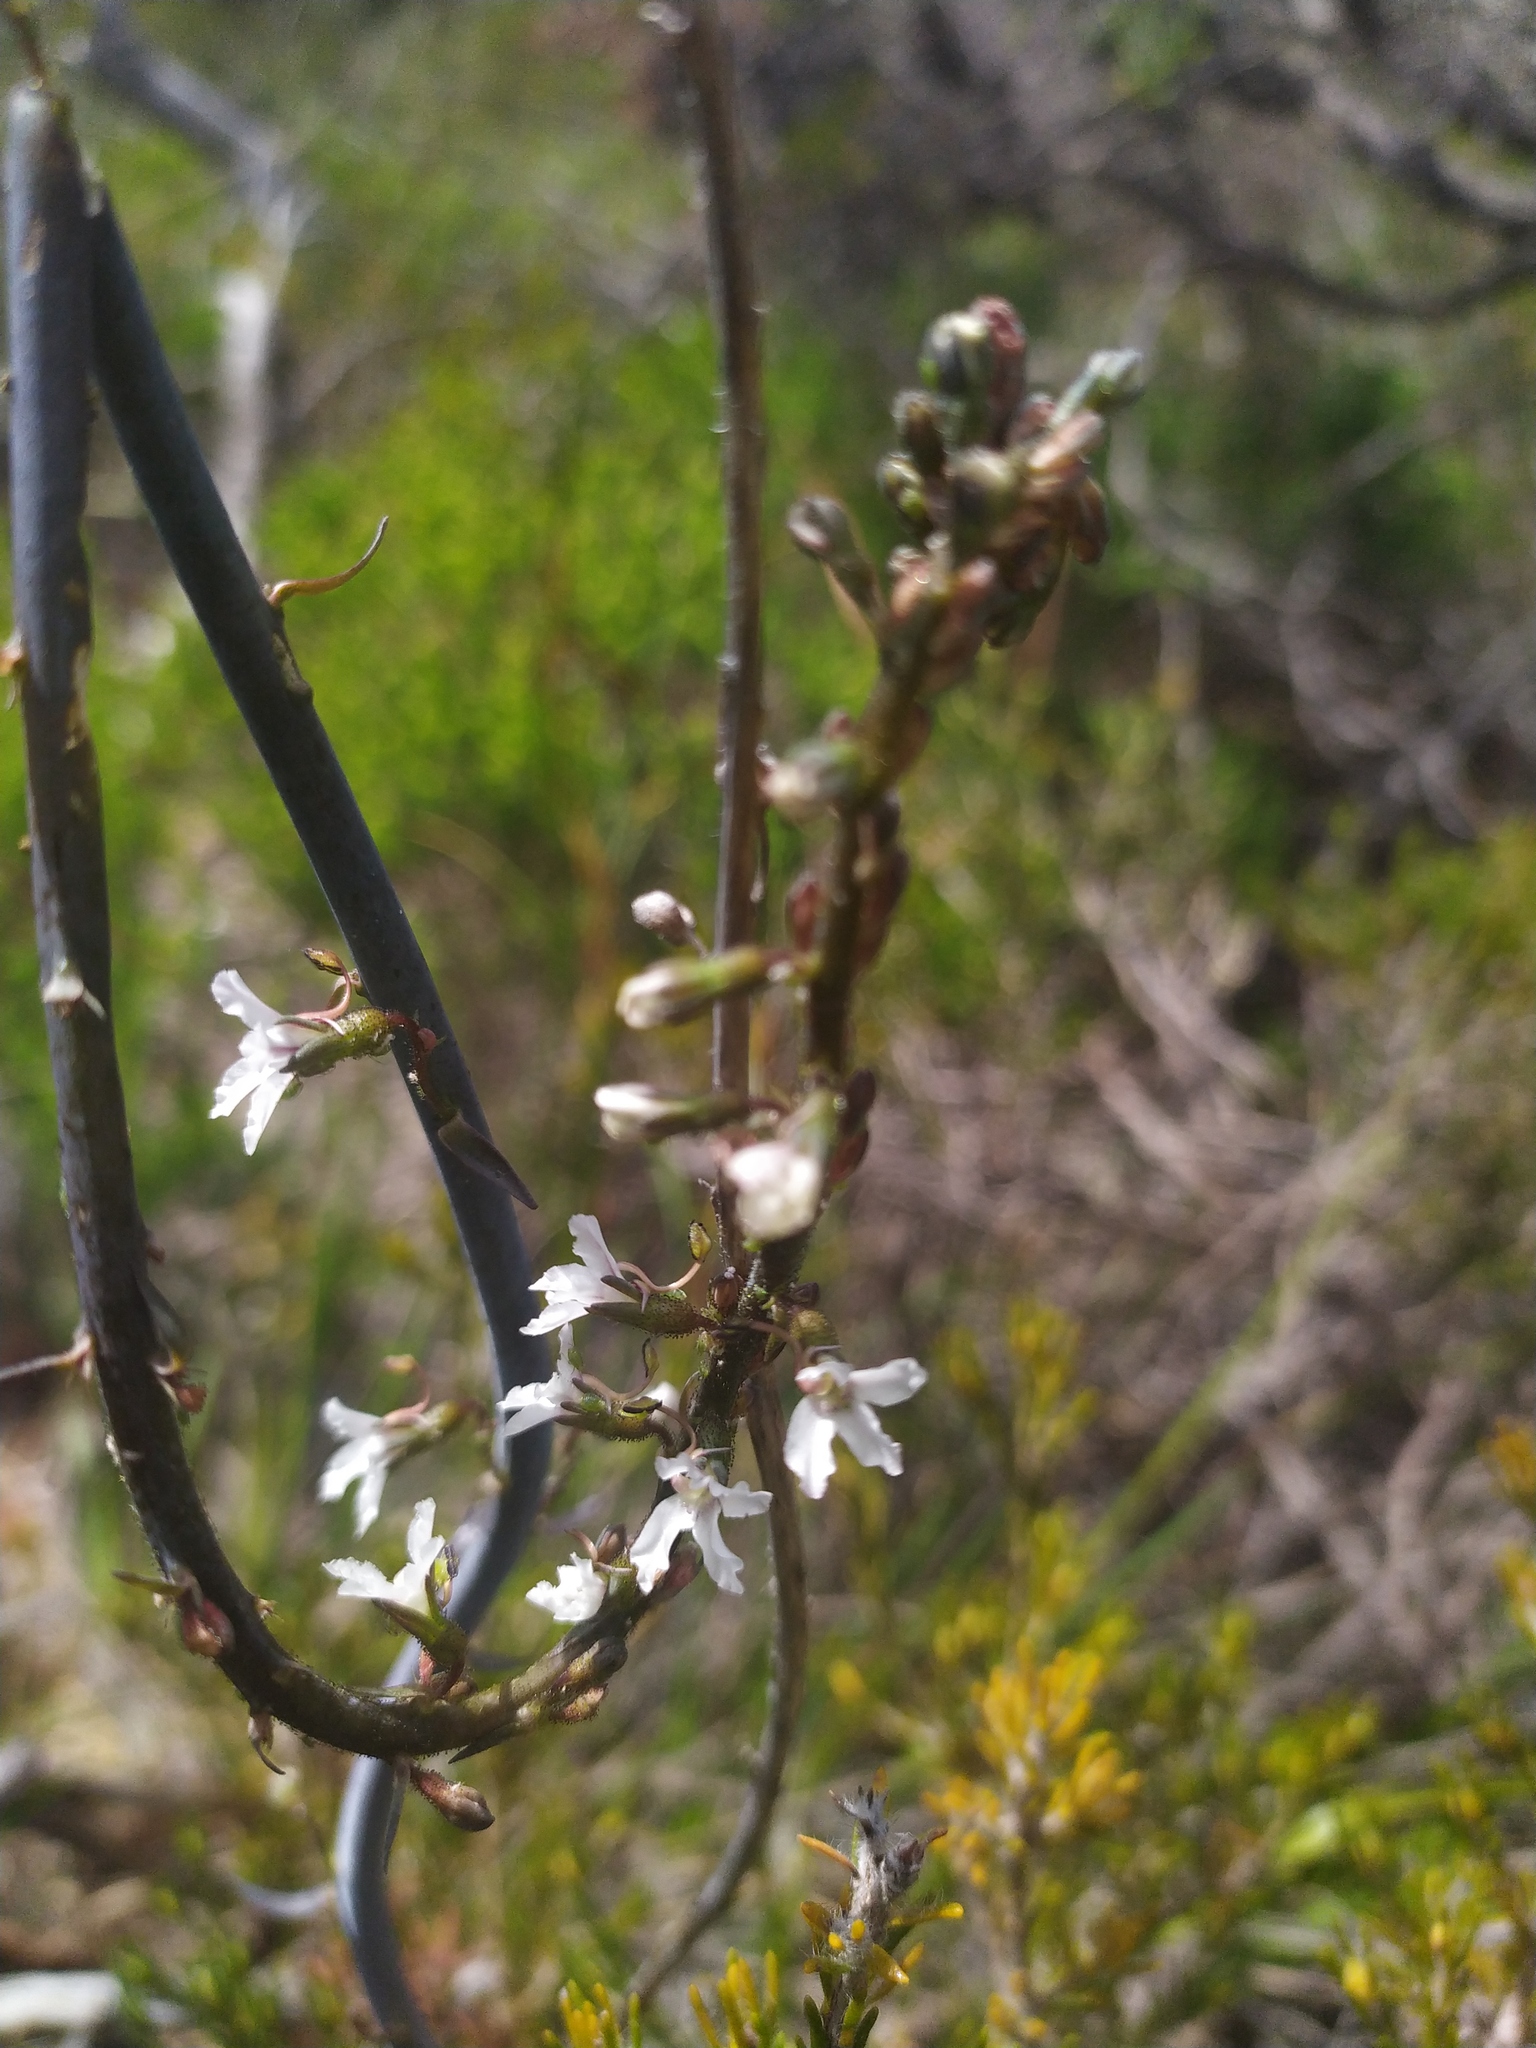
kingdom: Plantae
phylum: Tracheophyta
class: Magnoliopsida
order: Asterales
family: Stylidiaceae
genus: Stylidium
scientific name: Stylidium carnosum
